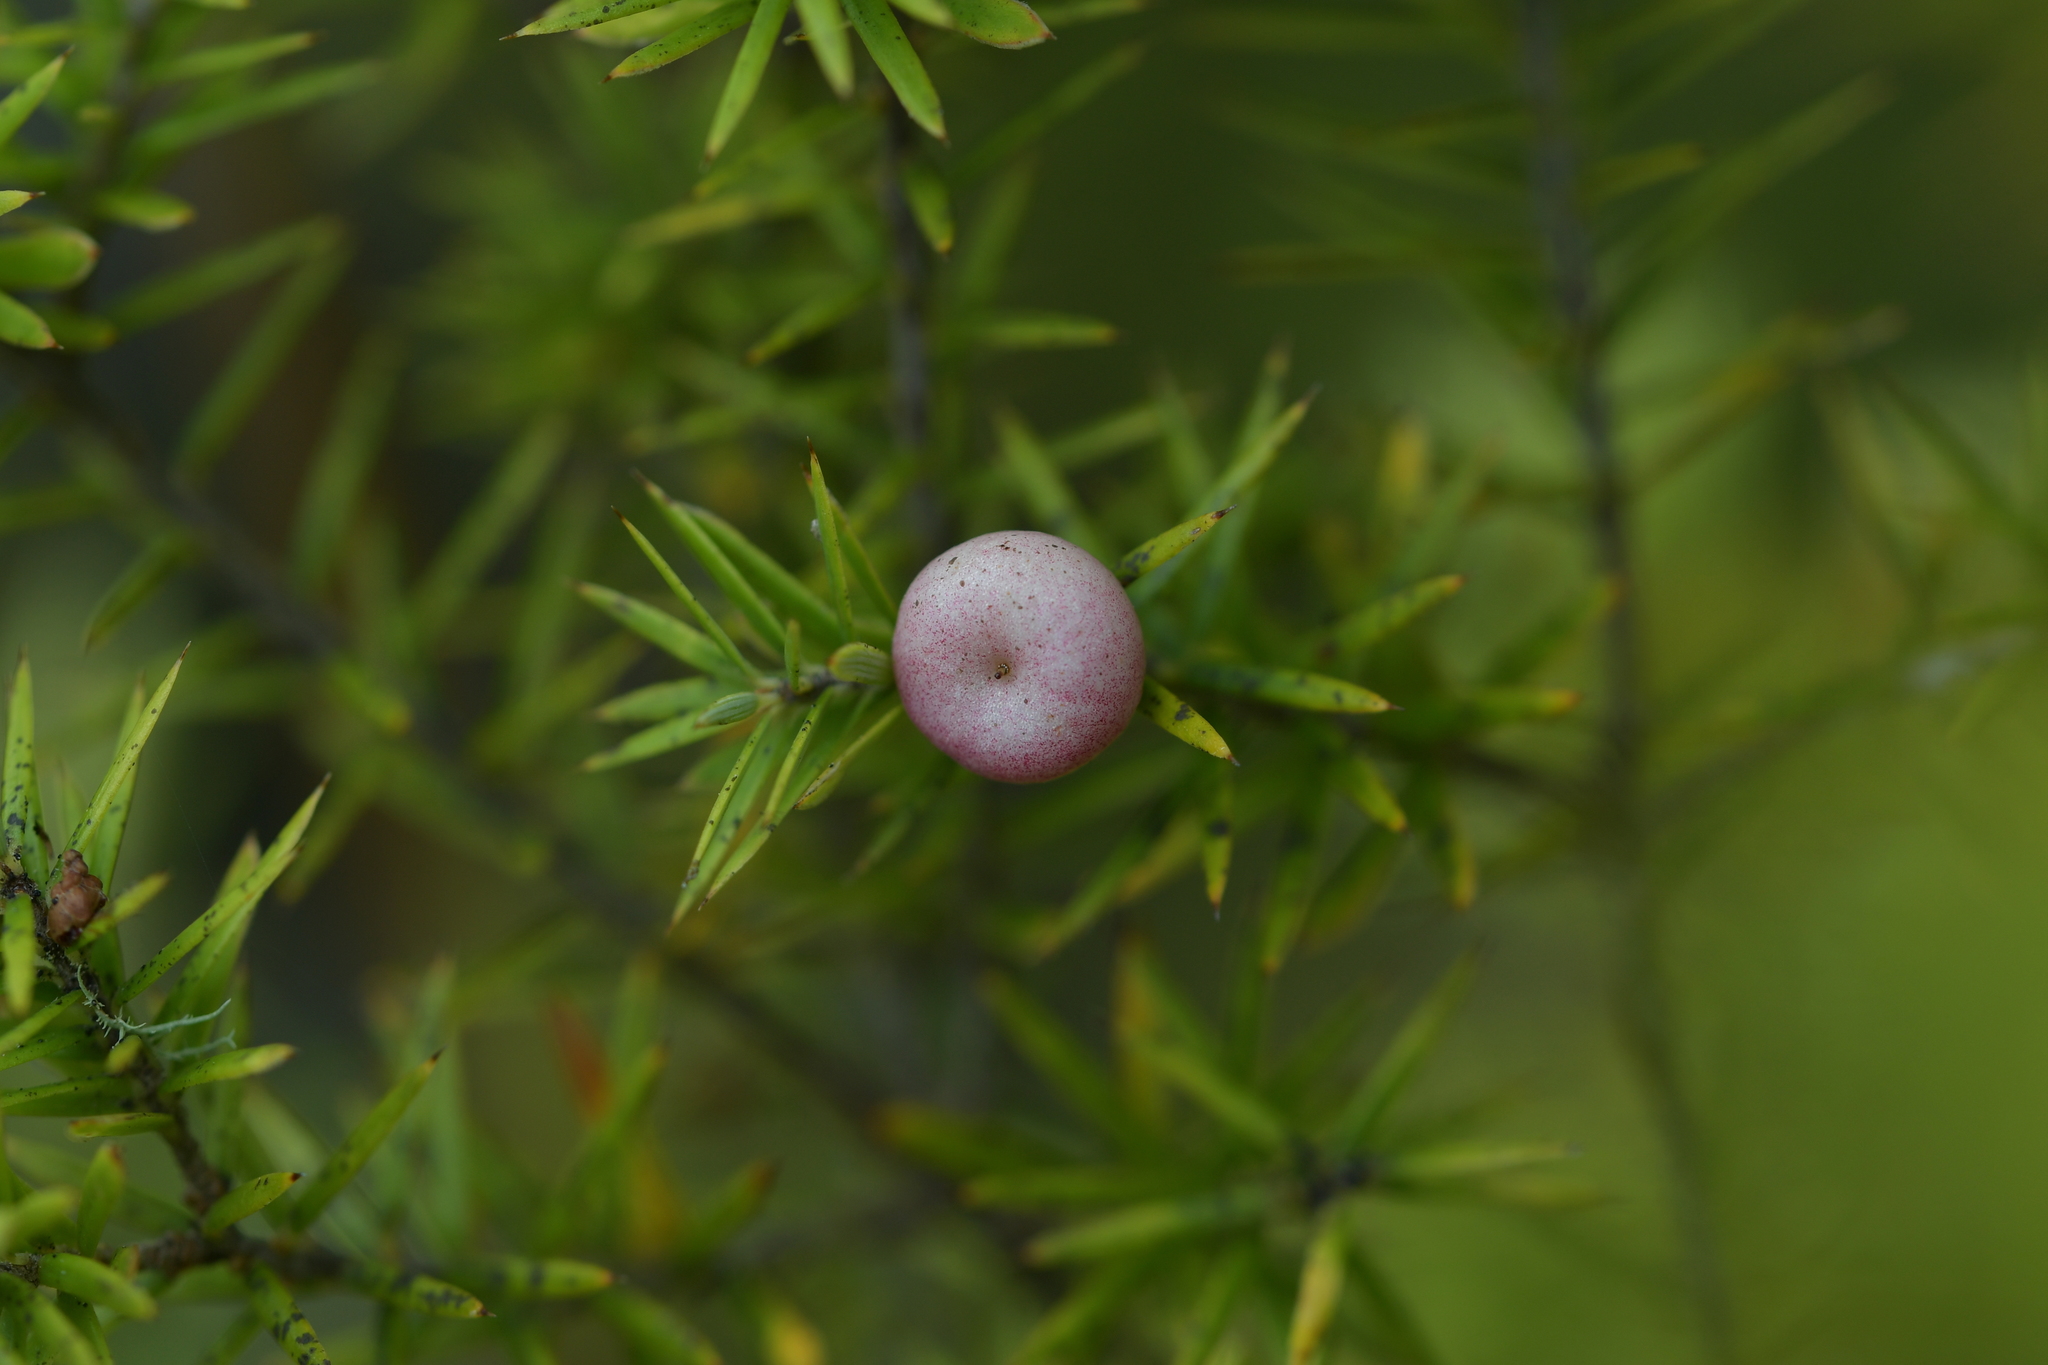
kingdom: Plantae
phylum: Tracheophyta
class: Magnoliopsida
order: Ericales
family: Ericaceae
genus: Leptecophylla
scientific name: Leptecophylla juniperina
